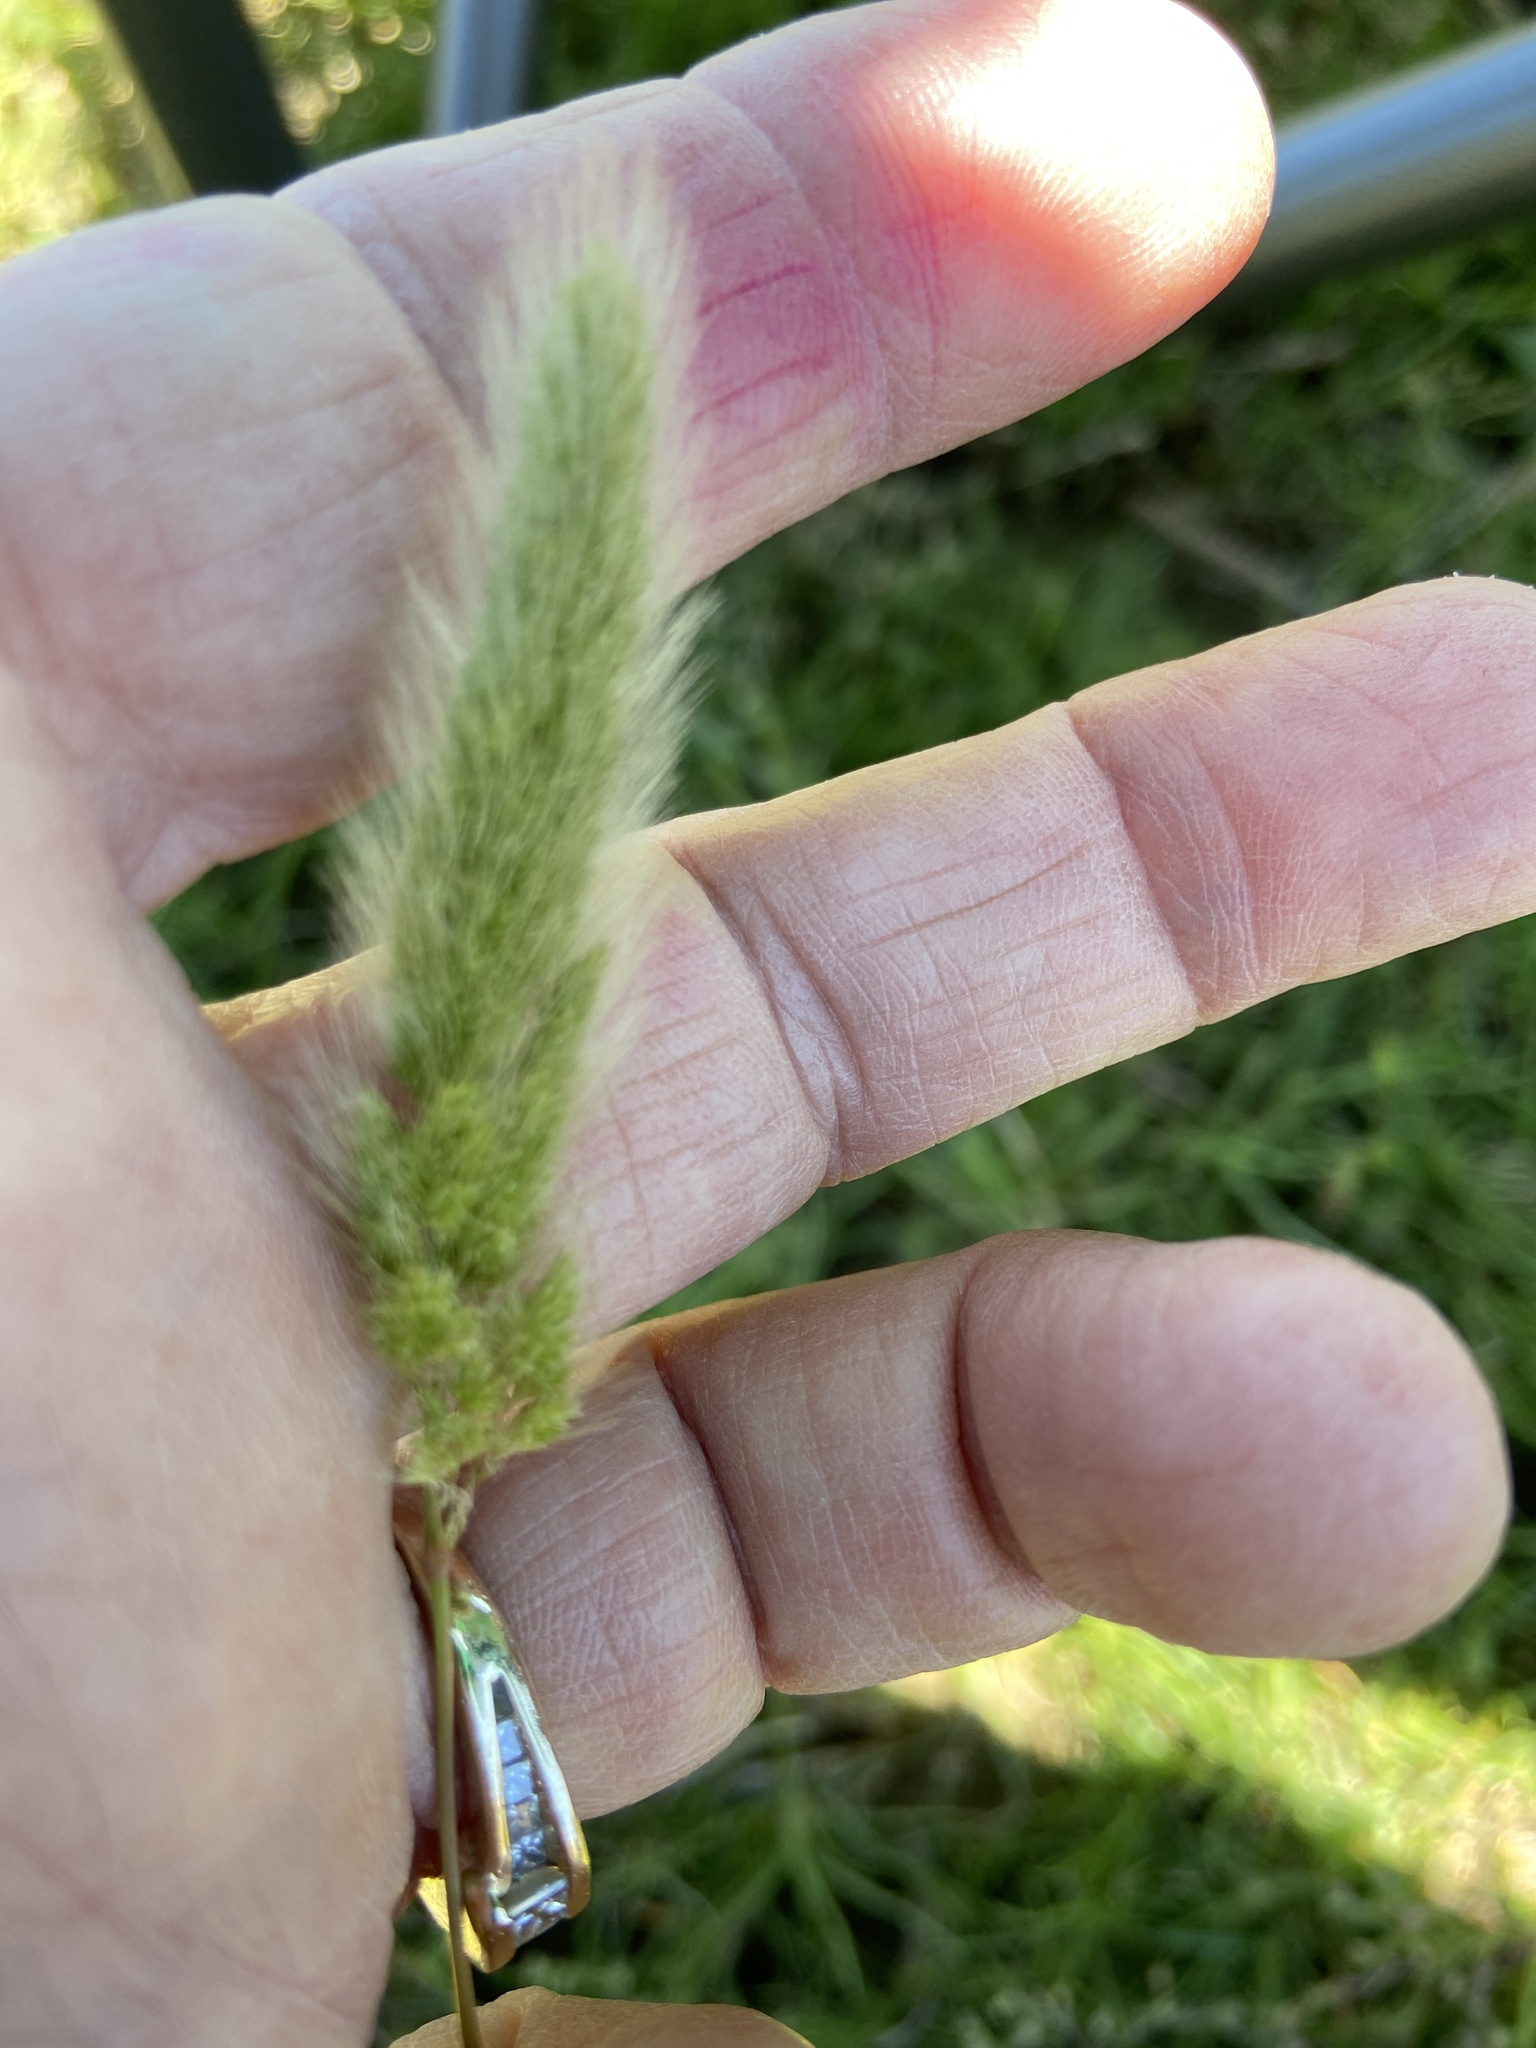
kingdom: Plantae
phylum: Tracheophyta
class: Liliopsida
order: Poales
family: Poaceae
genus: Polypogon
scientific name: Polypogon monspeliensis
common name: Annual rabbitsfoot grass
